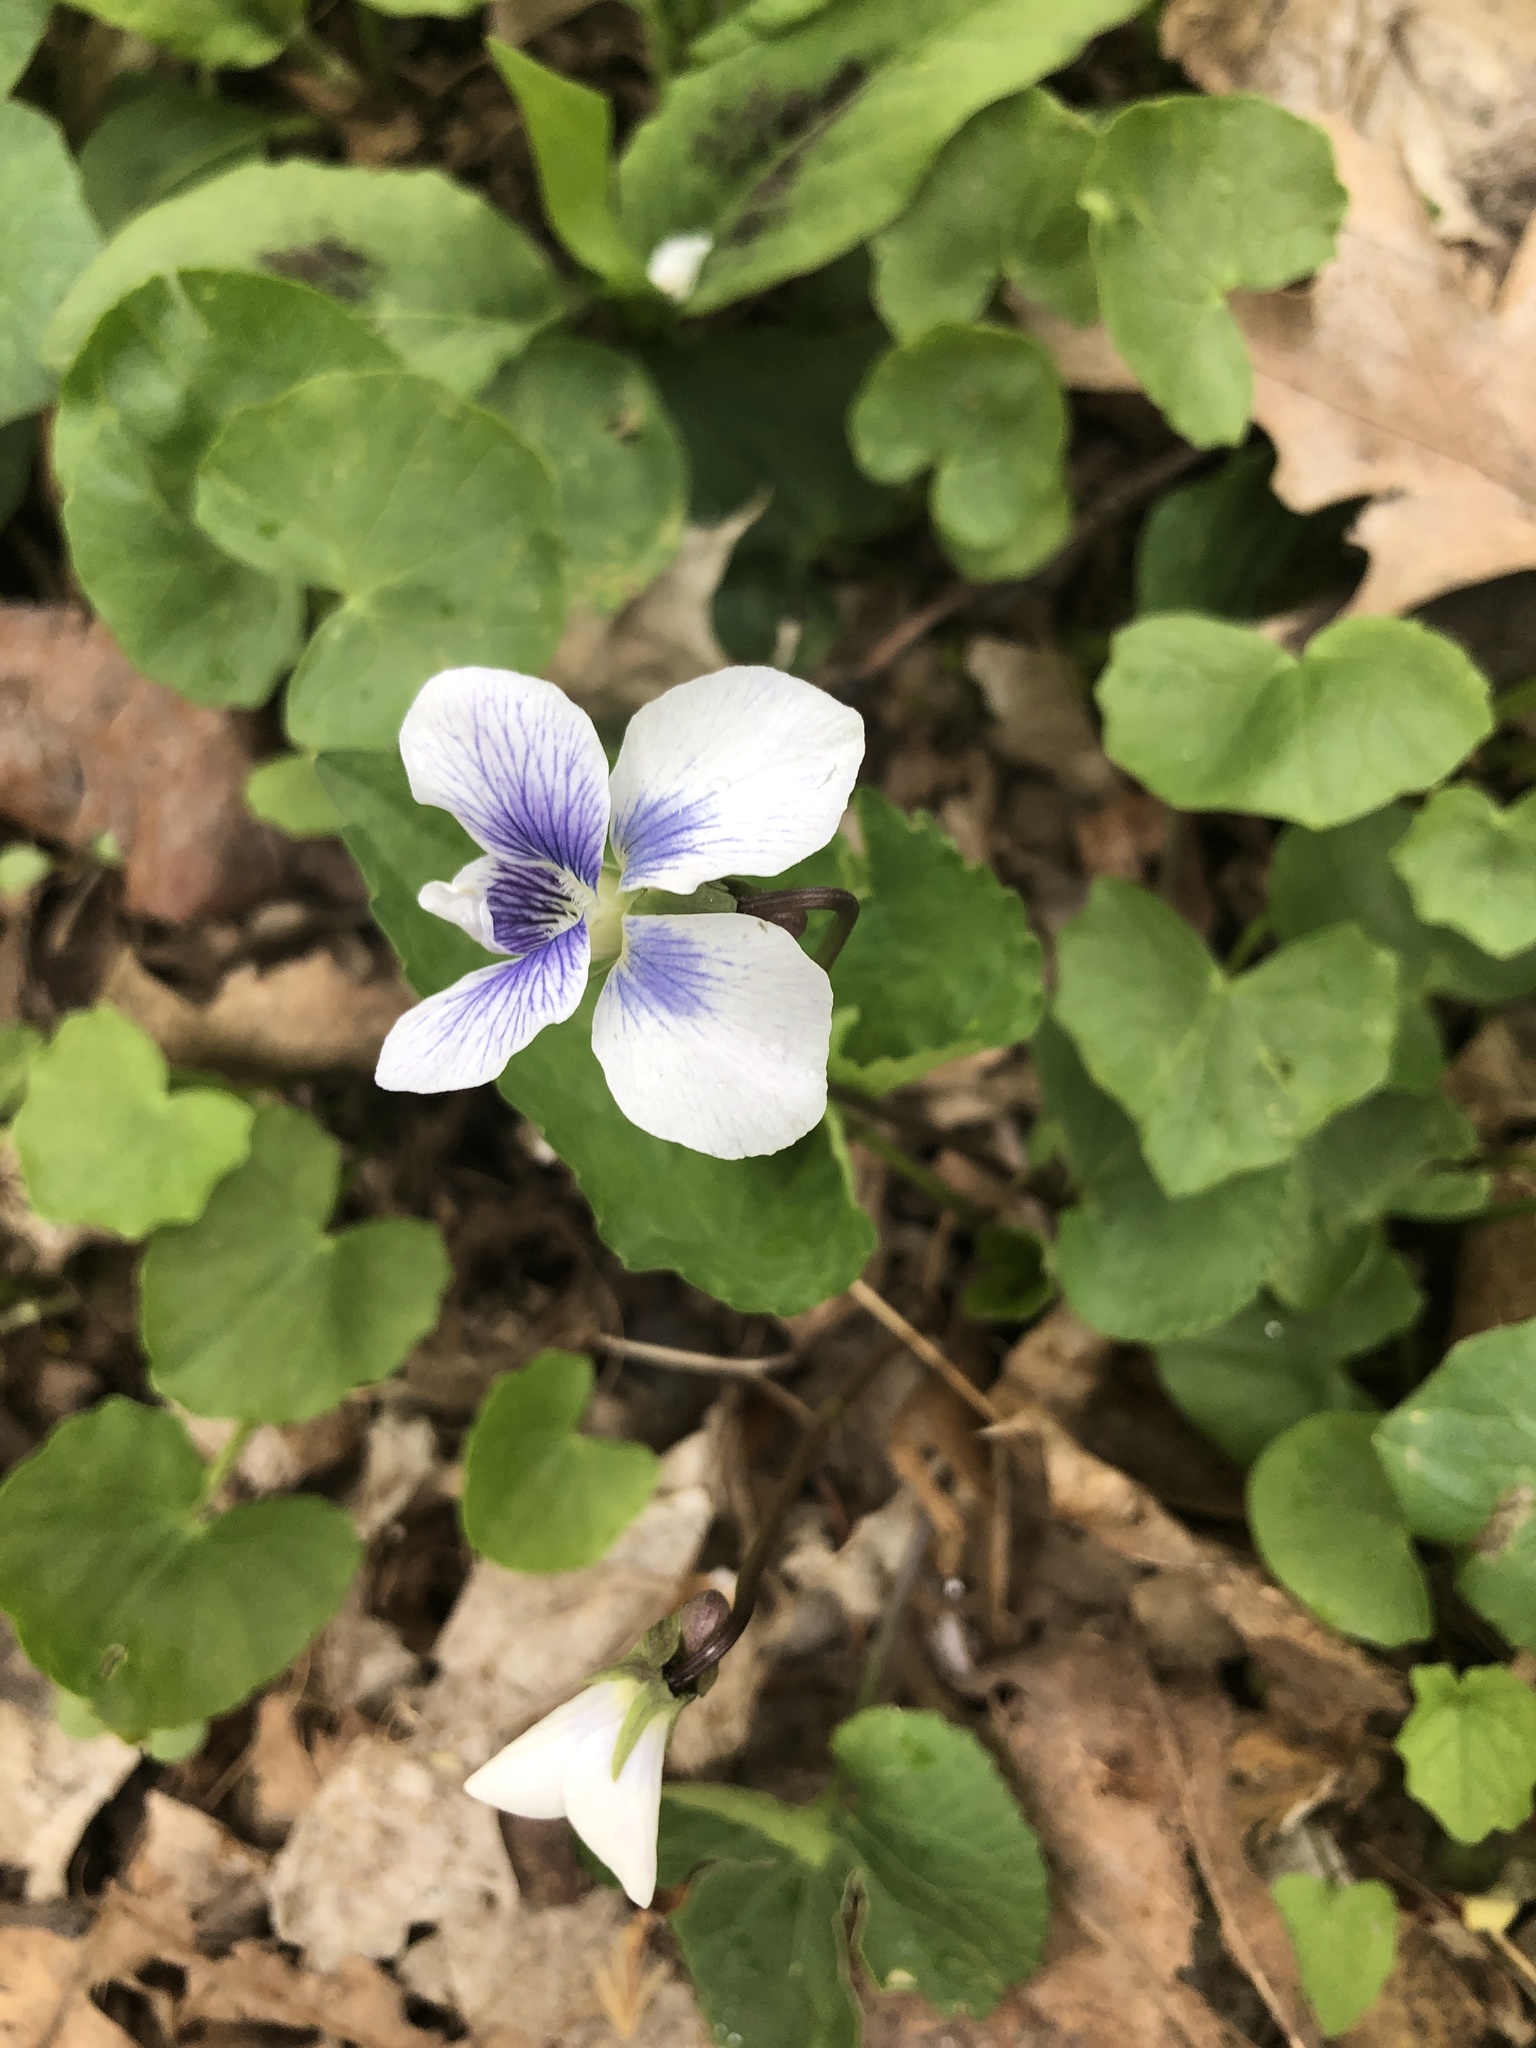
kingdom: Plantae
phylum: Tracheophyta
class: Magnoliopsida
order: Malpighiales
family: Violaceae
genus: Viola
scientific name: Viola sororia
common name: Dooryard violet
